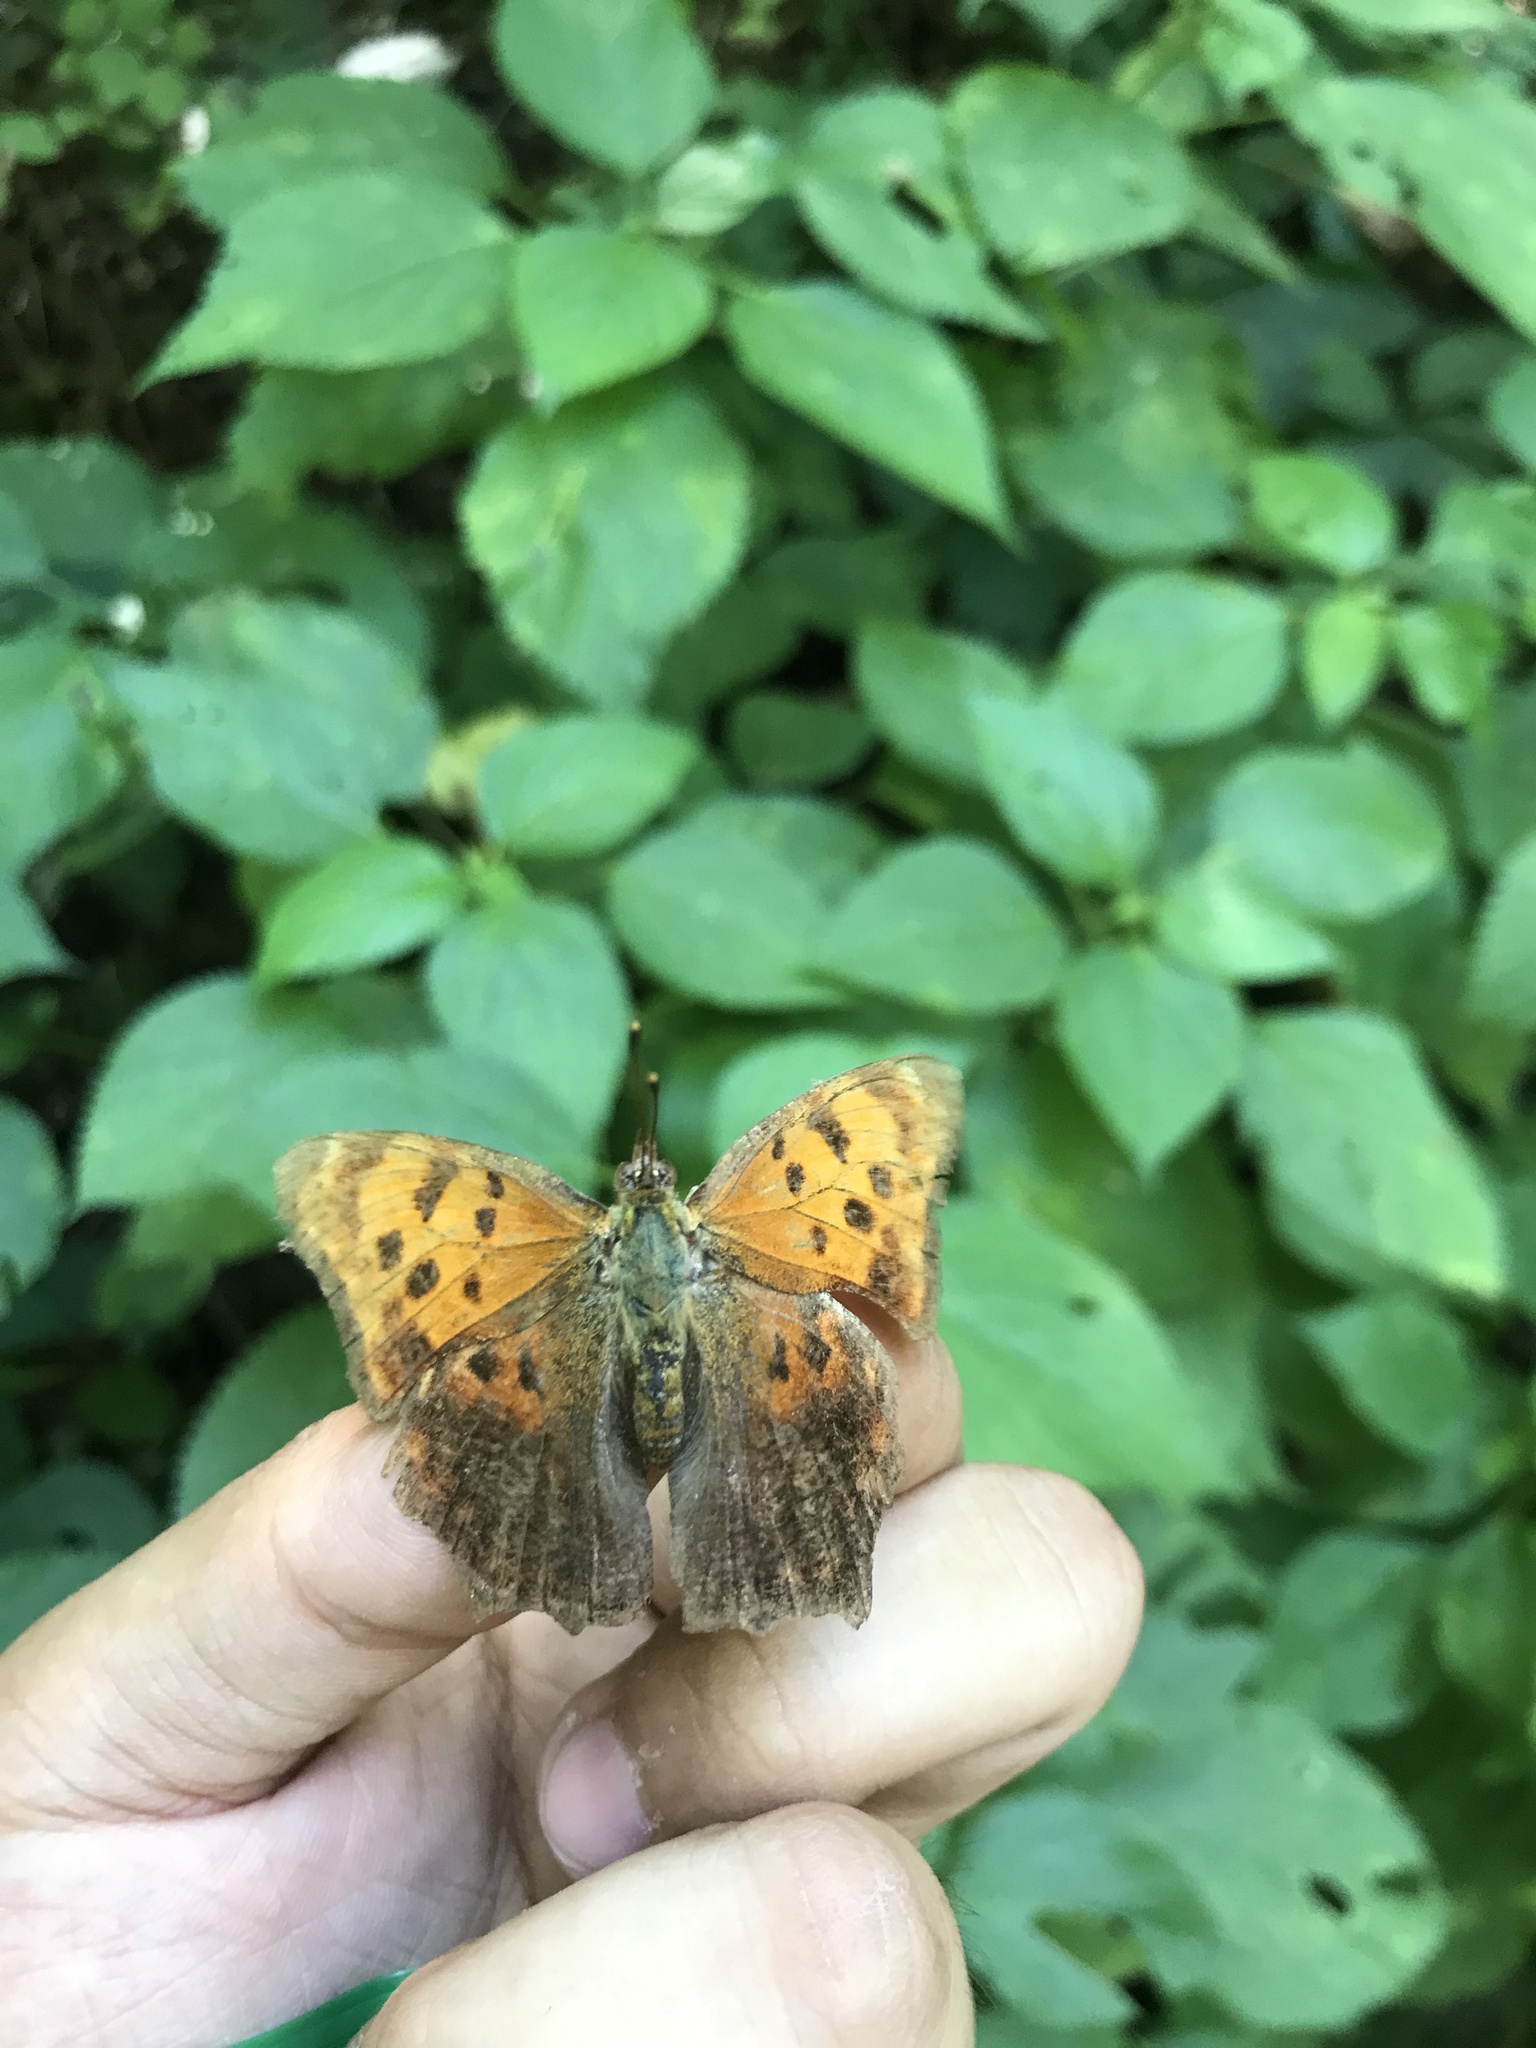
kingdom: Animalia
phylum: Arthropoda
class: Insecta
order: Lepidoptera
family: Nymphalidae
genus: Polygonia
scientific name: Polygonia comma
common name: Eastern comma
